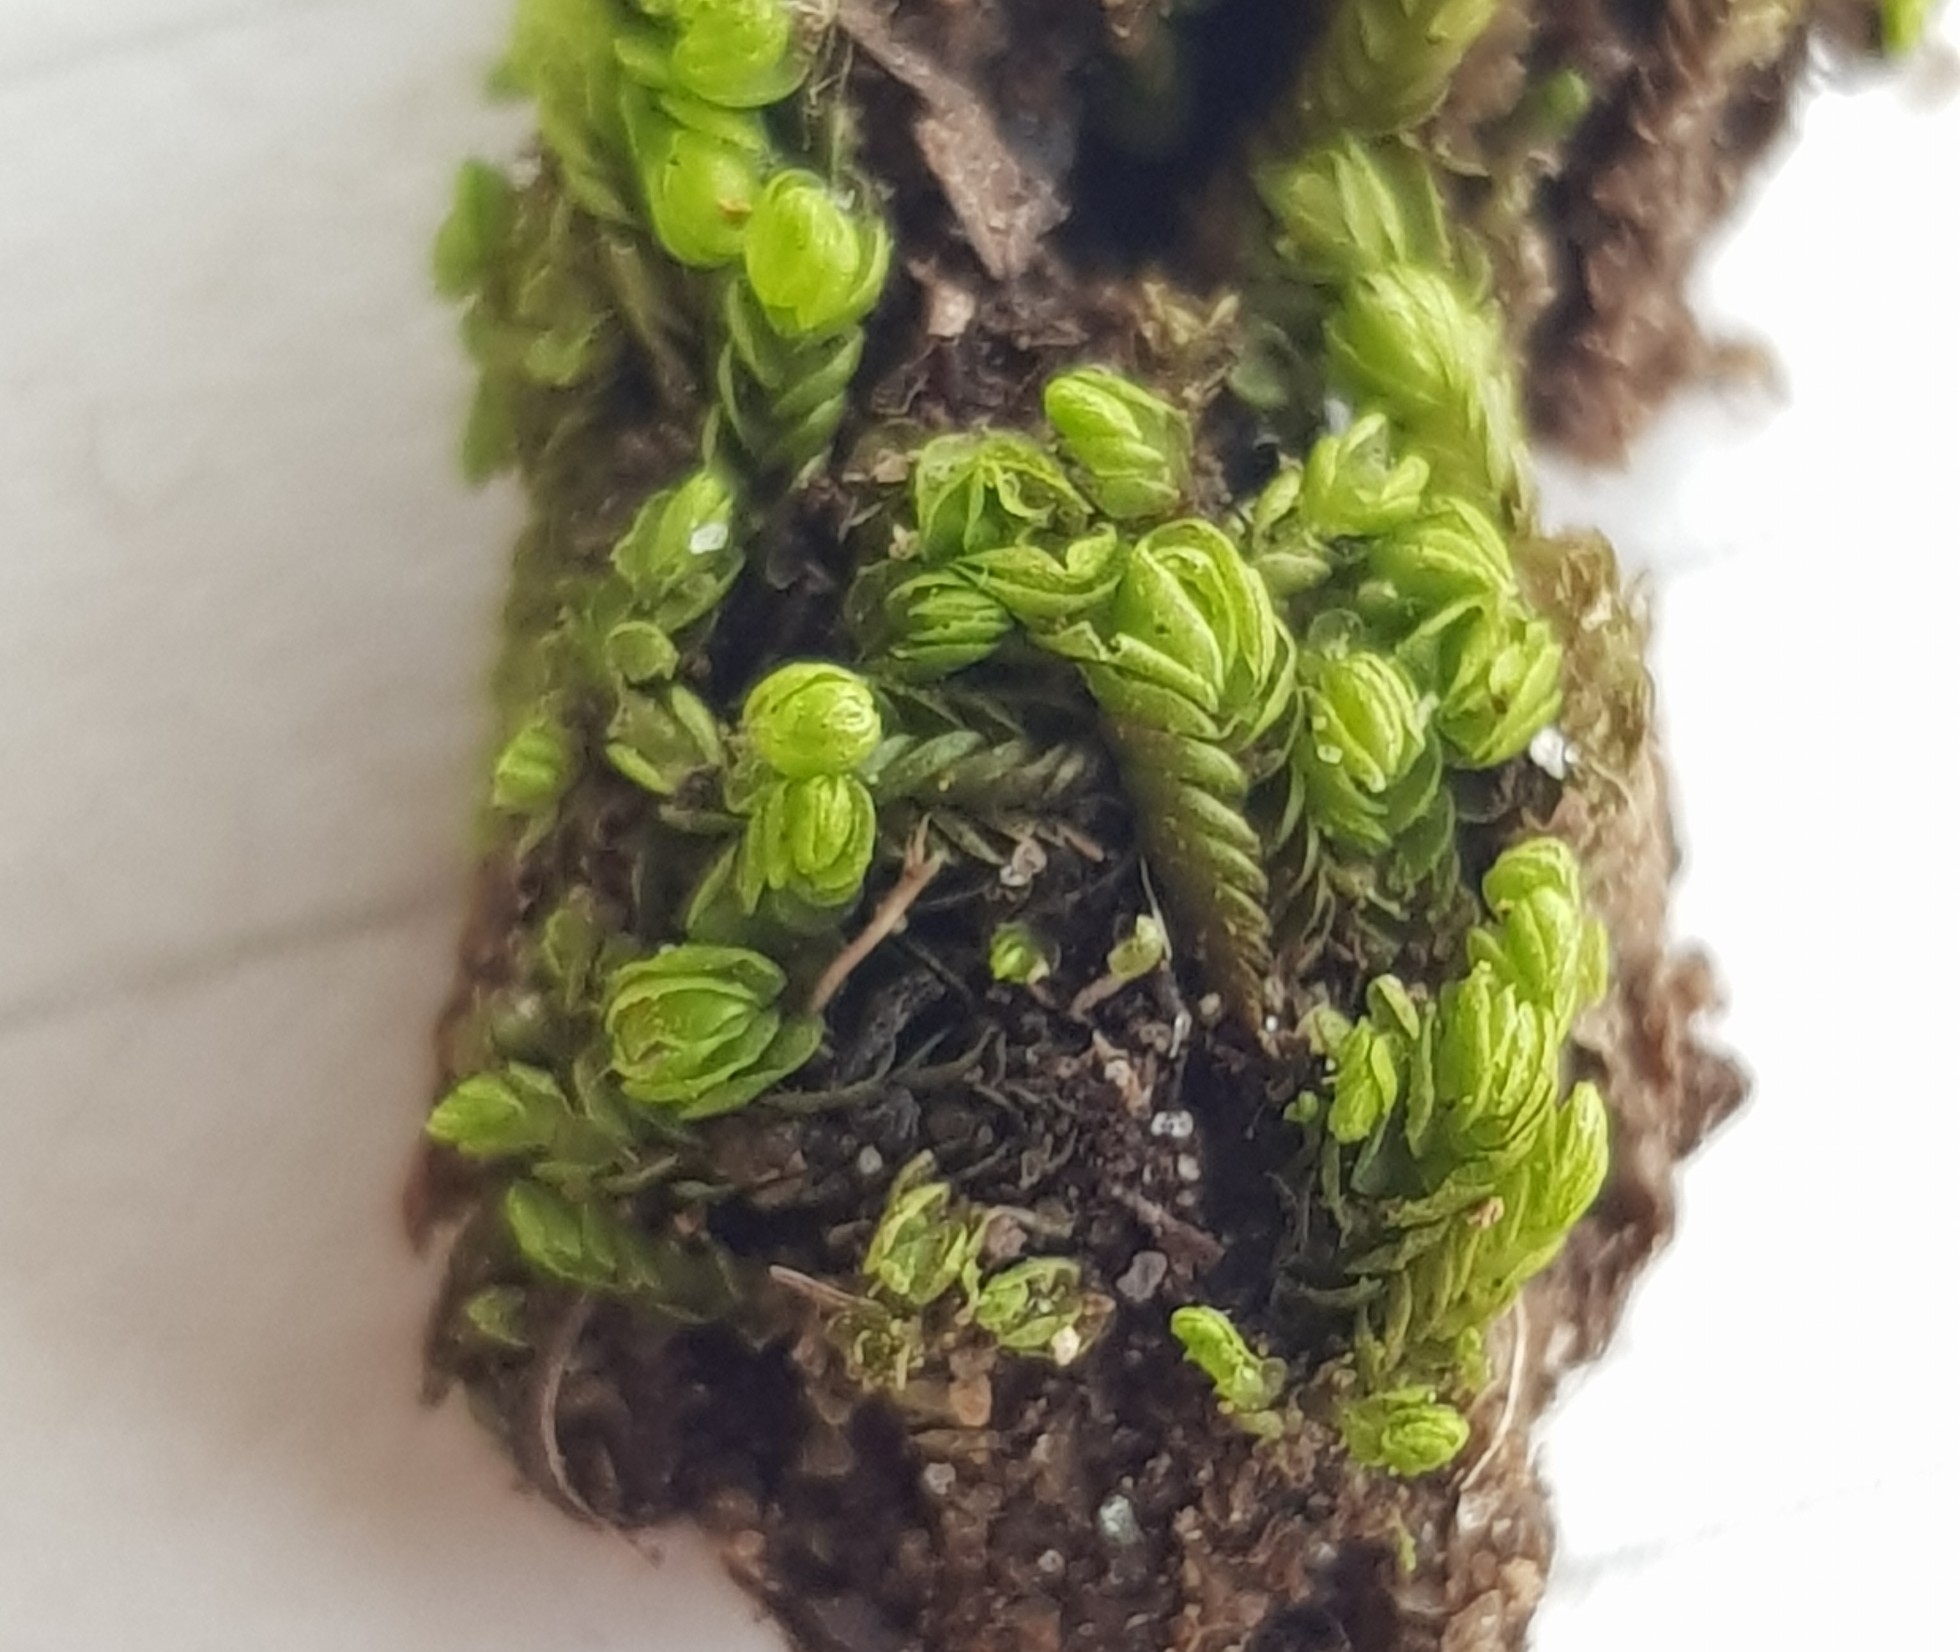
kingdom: Plantae
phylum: Marchantiophyta
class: Jungermanniopsida
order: Jungermanniales
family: Gymnomitriaceae
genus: Nardia
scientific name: Nardia scalaris
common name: Ladder flapwort
